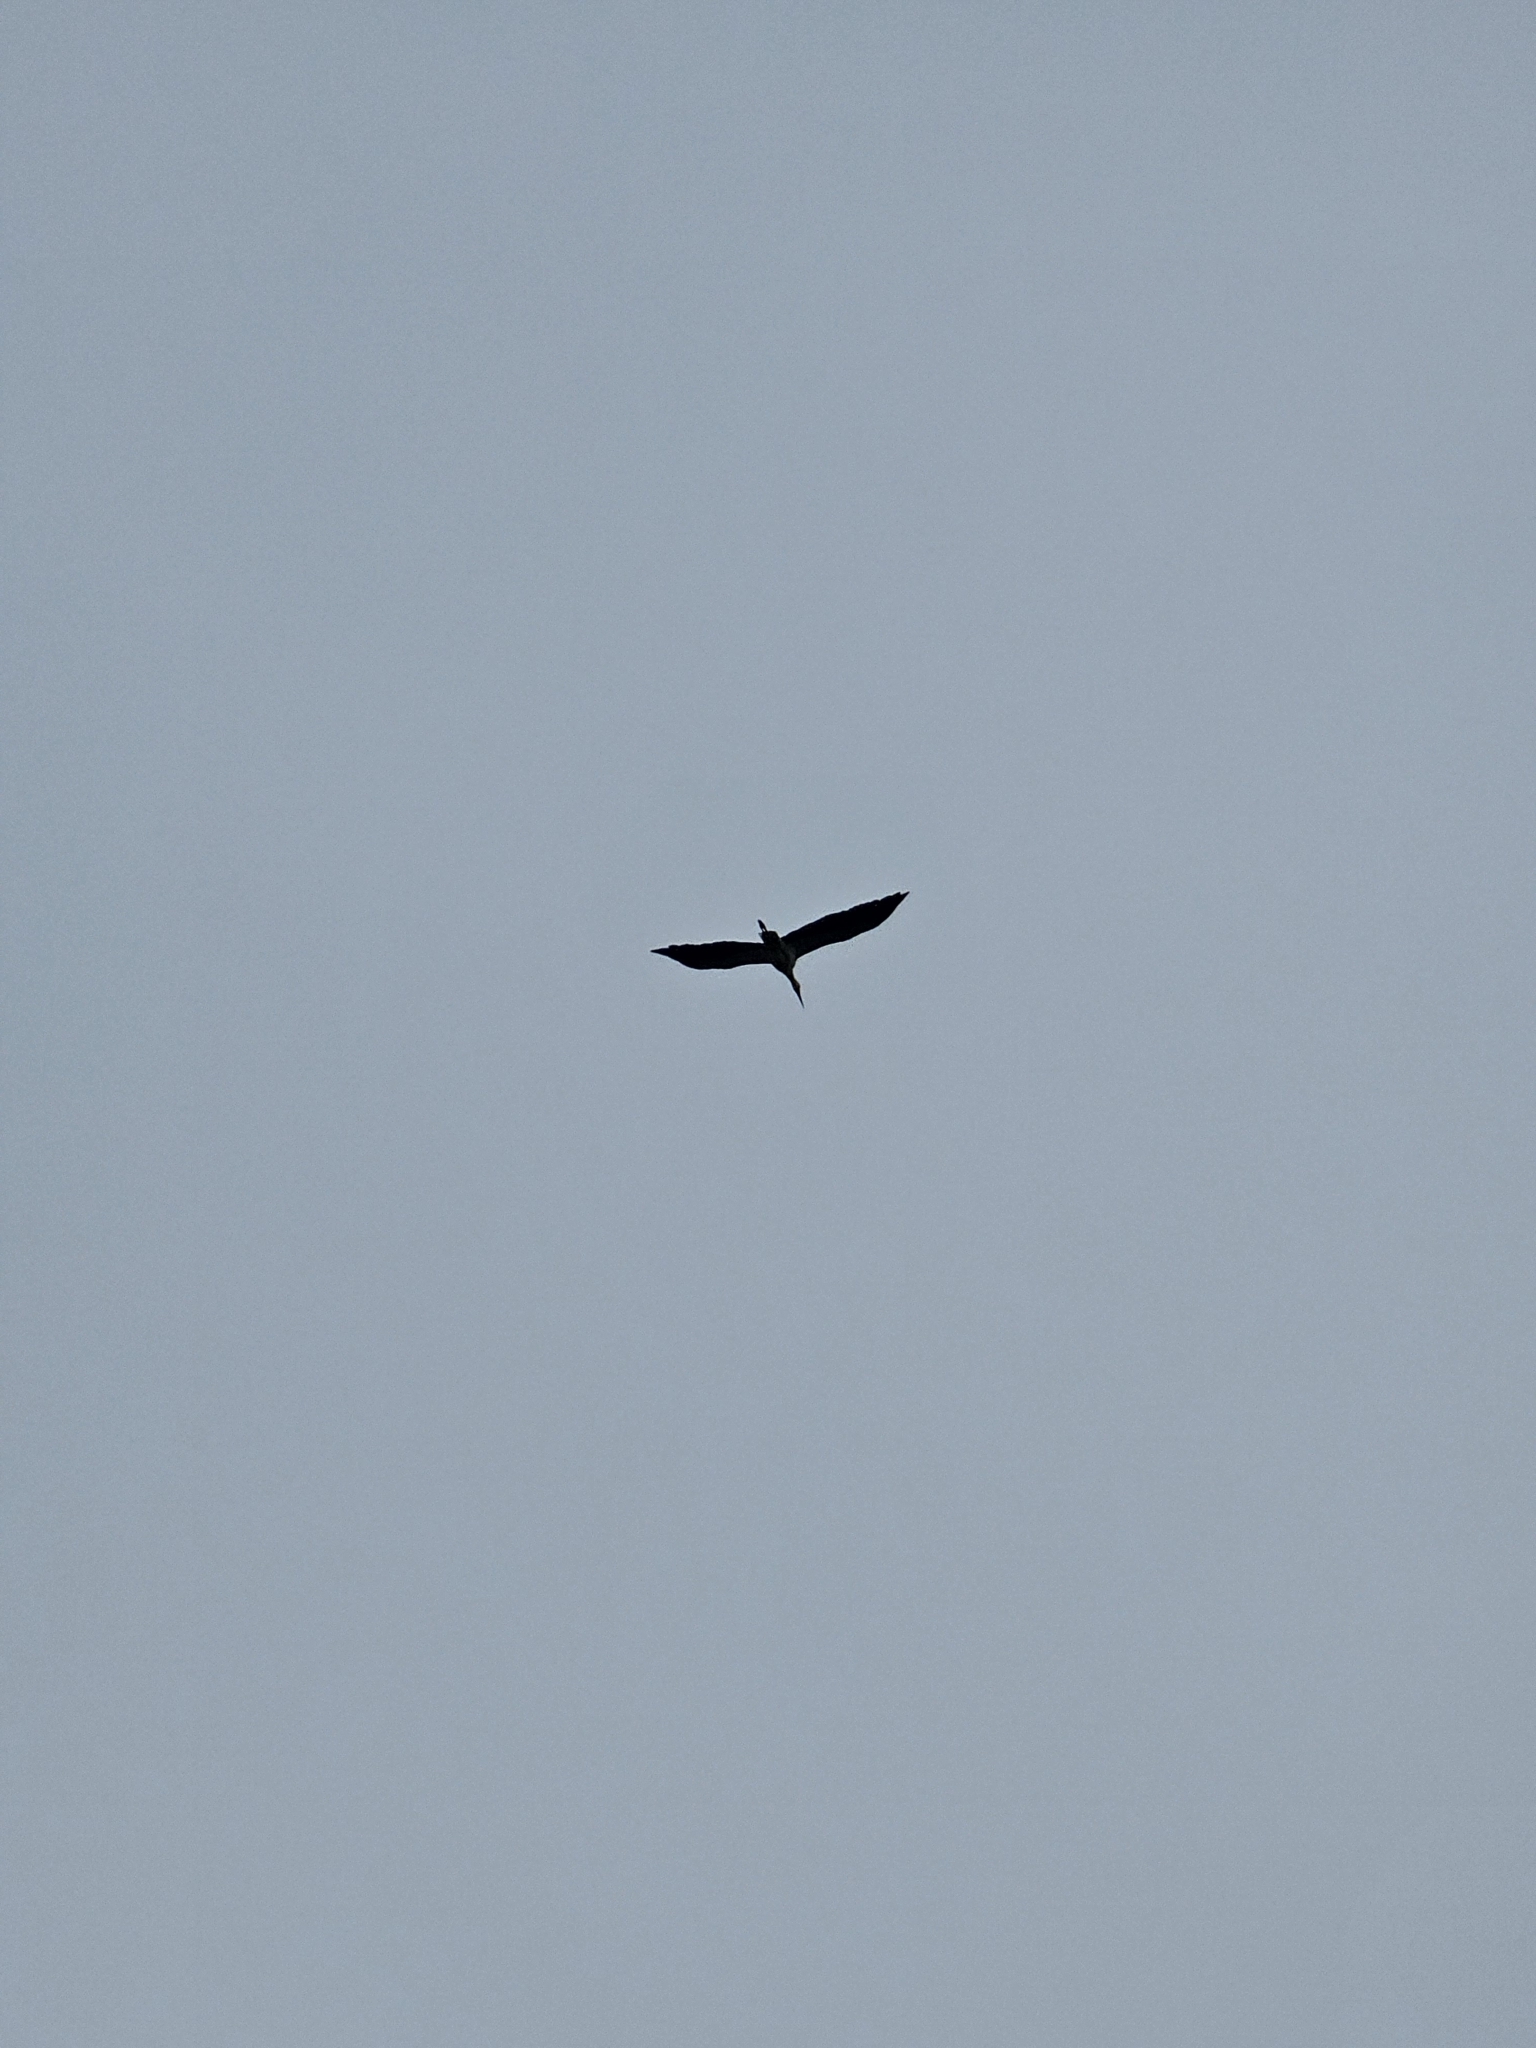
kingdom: Animalia
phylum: Chordata
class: Aves
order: Ciconiiformes
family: Ciconiidae
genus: Ciconia
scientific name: Ciconia ciconia
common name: White stork
